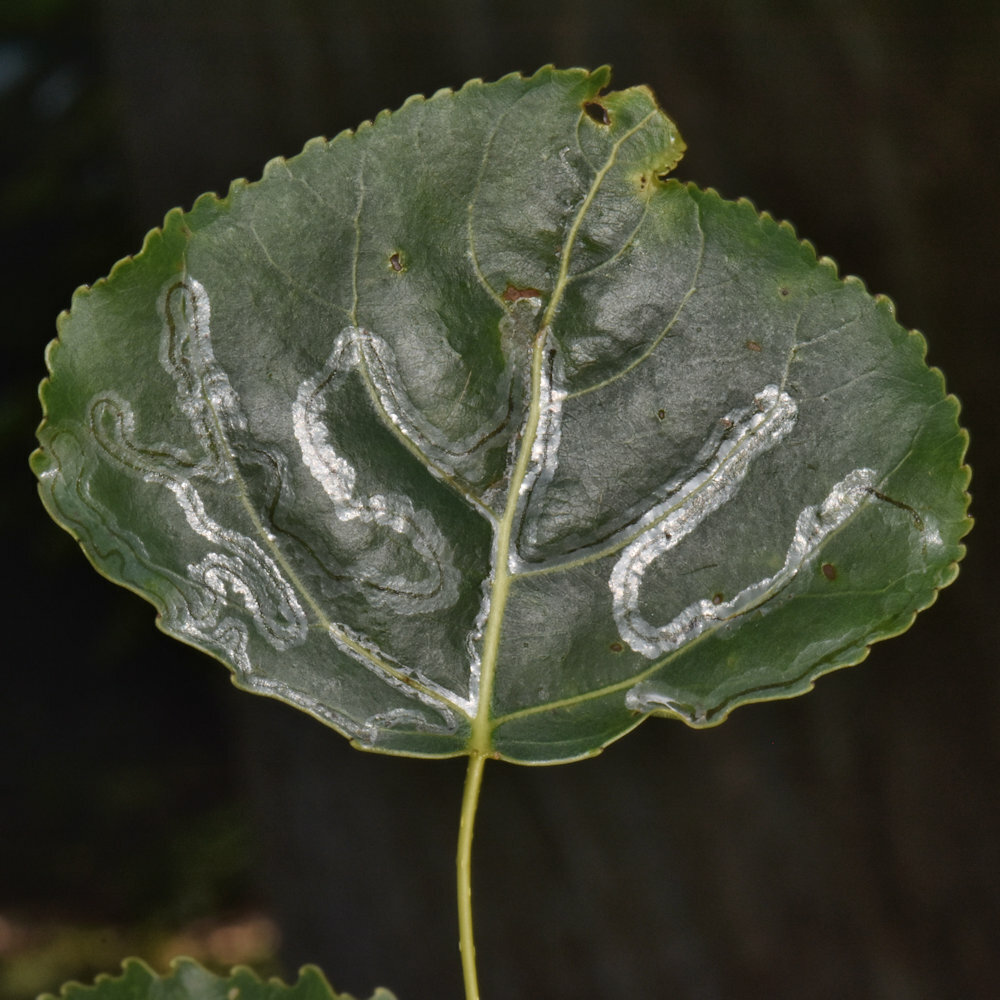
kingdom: Animalia
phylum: Arthropoda
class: Insecta
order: Lepidoptera
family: Gracillariidae
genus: Phyllocnistis
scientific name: Phyllocnistis populiella
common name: Aspen serpentine leafminer moth
